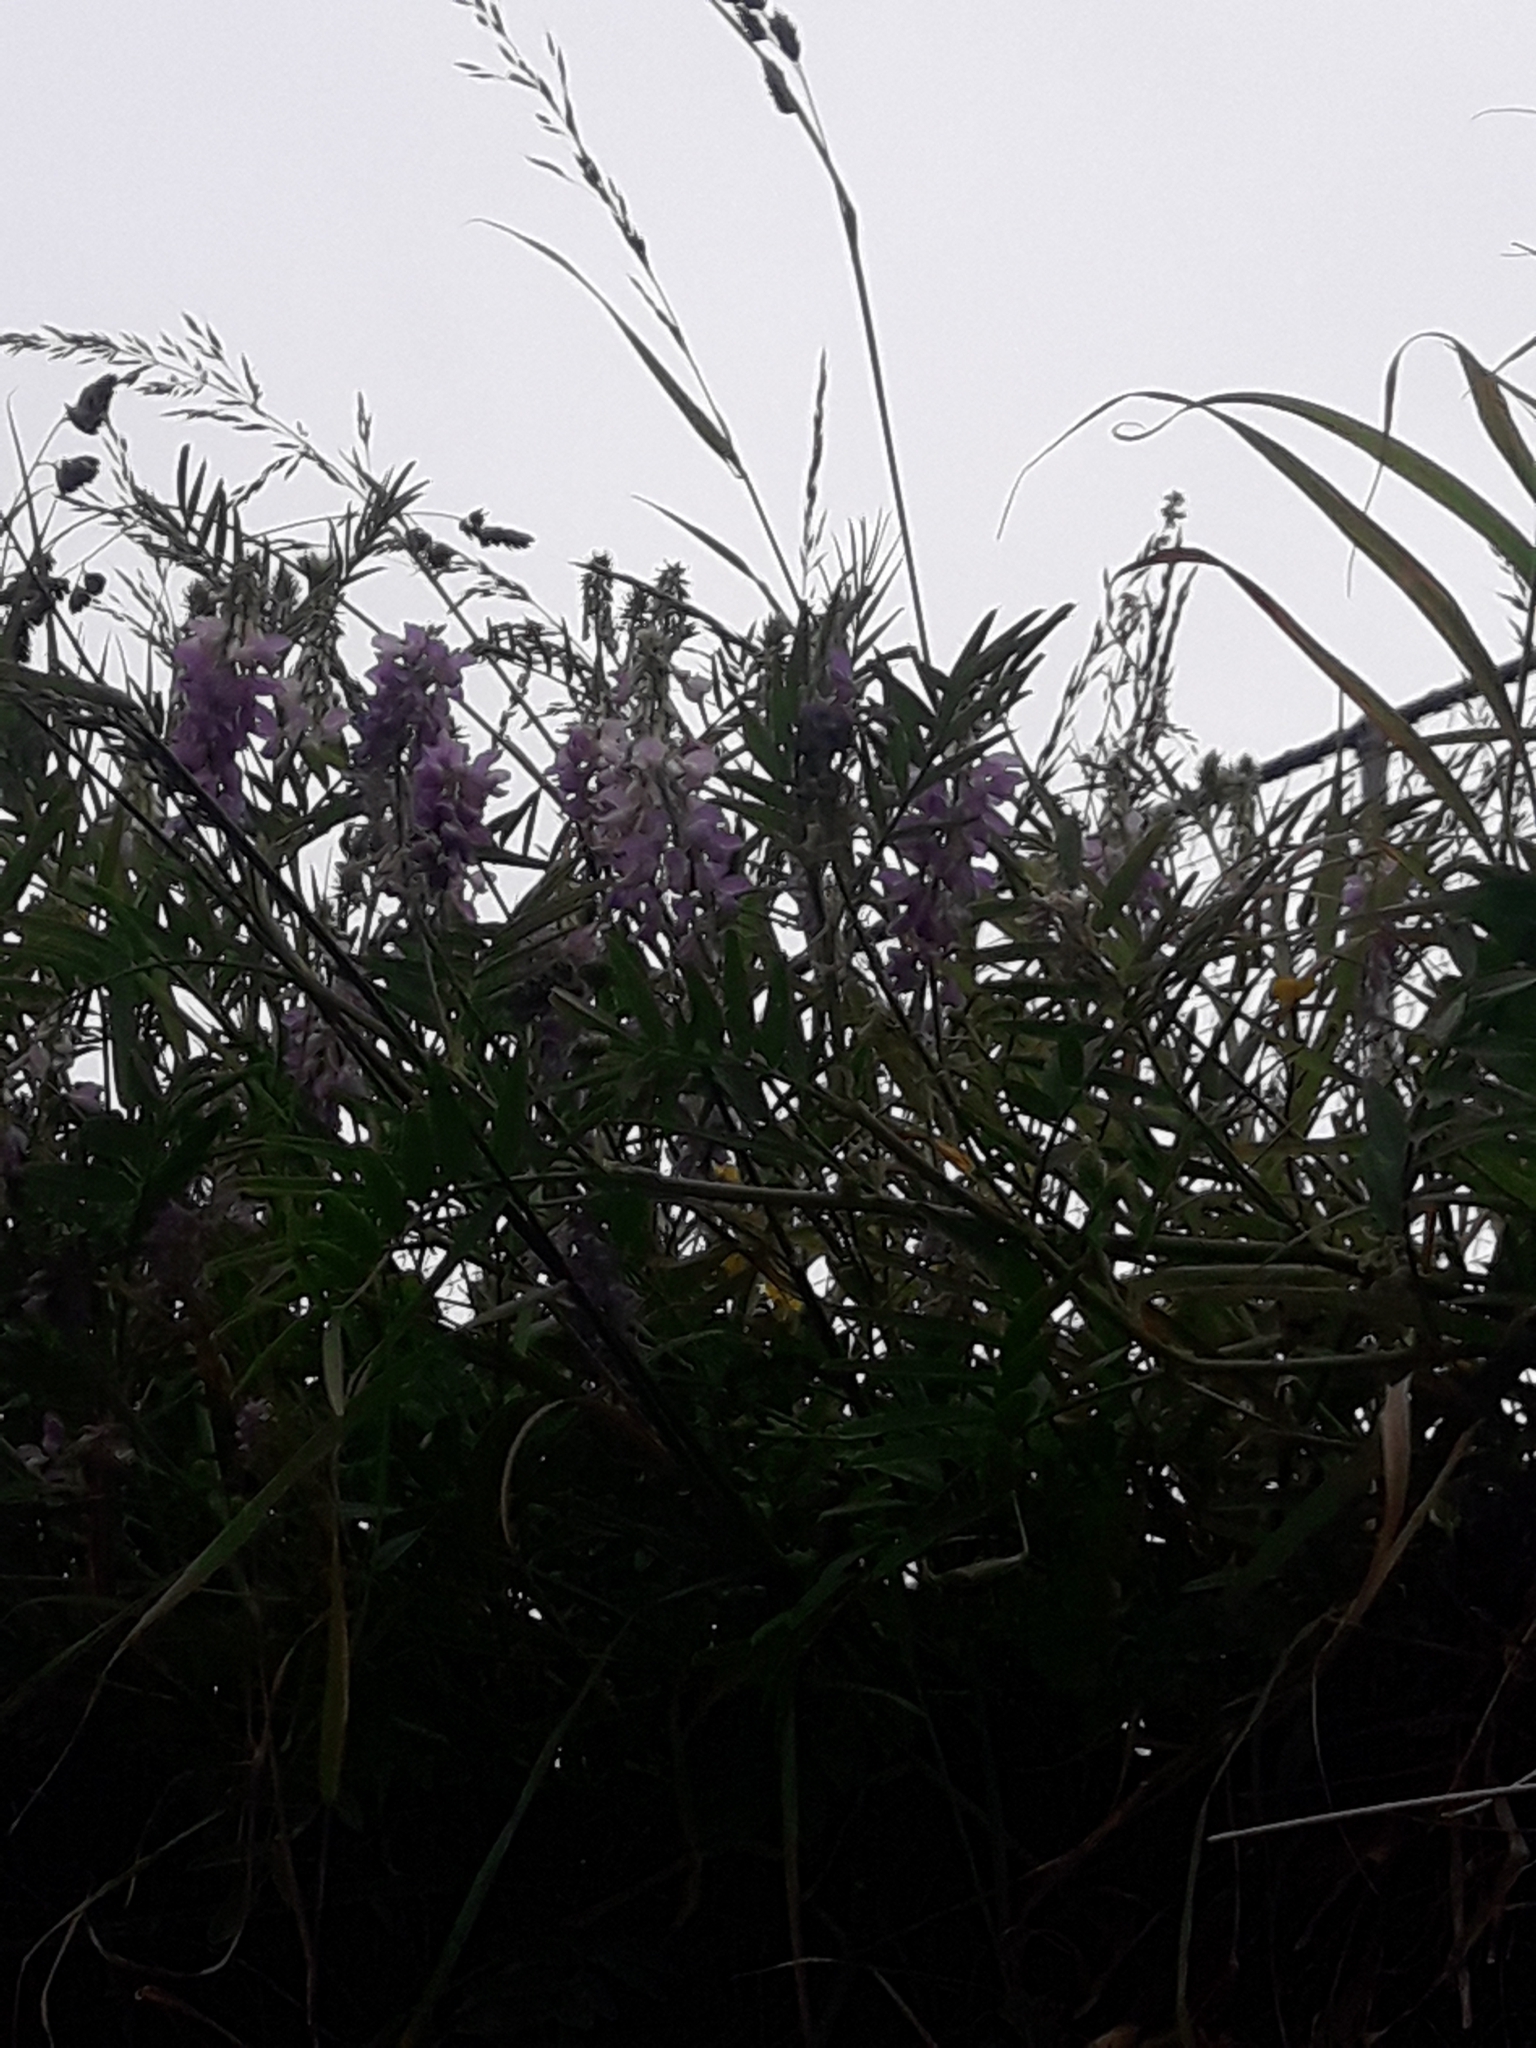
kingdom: Plantae
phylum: Tracheophyta
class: Magnoliopsida
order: Fabales
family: Fabaceae
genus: Galega
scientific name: Galega officinalis
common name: Goat's-rue
